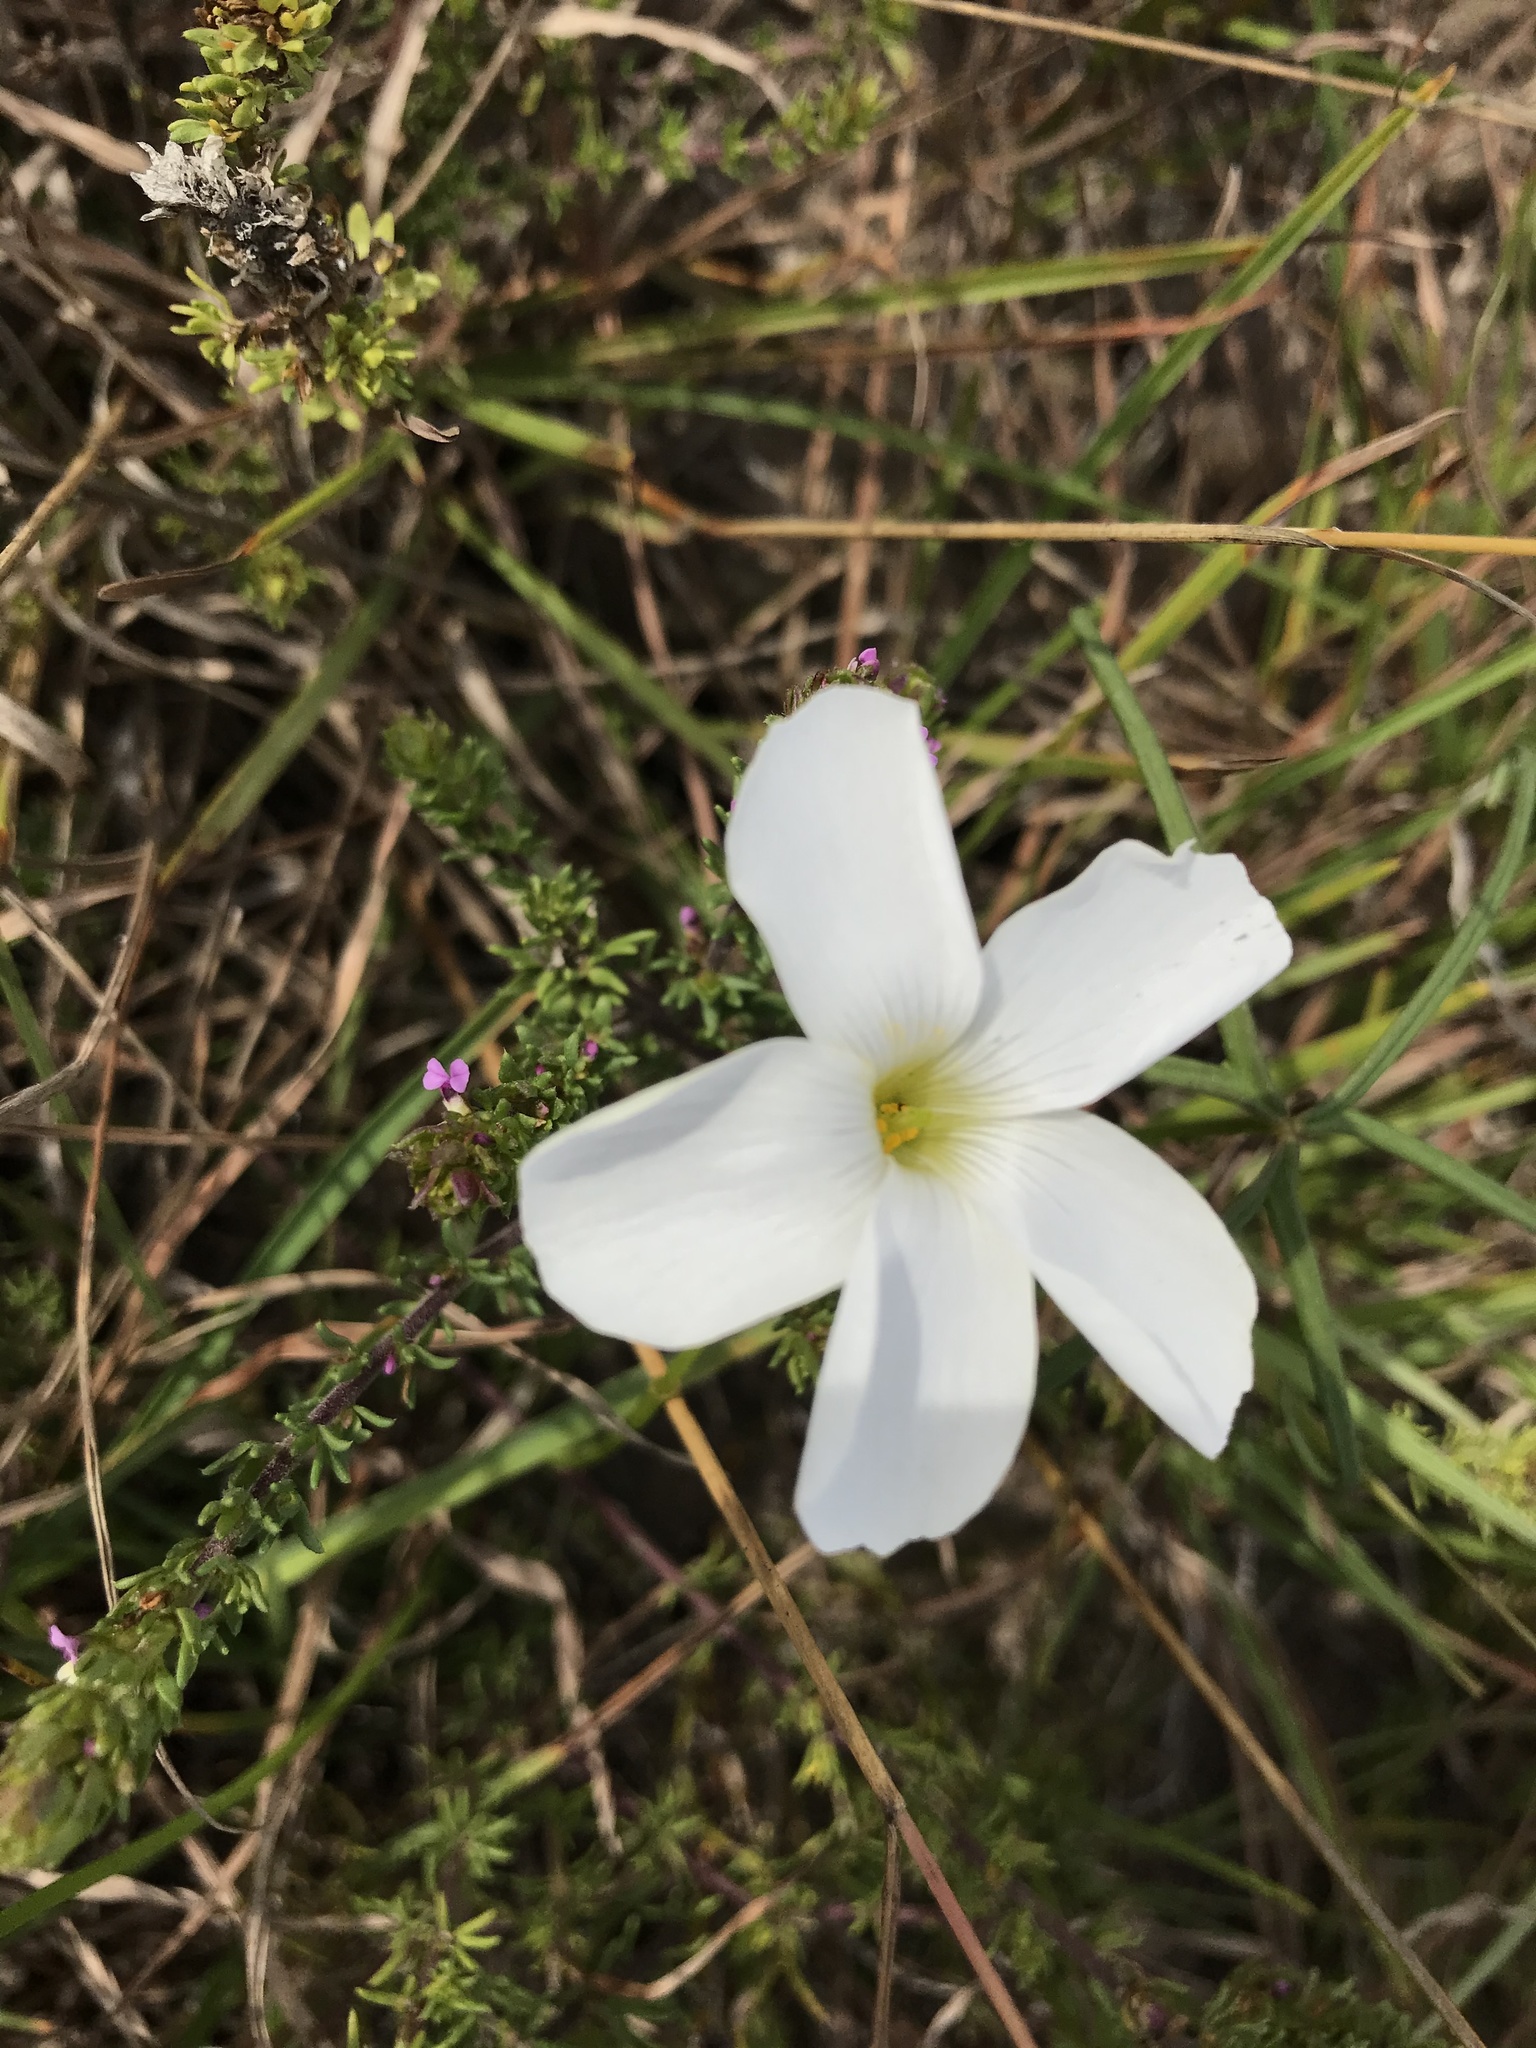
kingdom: Plantae
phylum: Tracheophyta
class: Magnoliopsida
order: Oxalidales
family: Oxalidaceae
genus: Oxalis
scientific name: Oxalis smithiana
